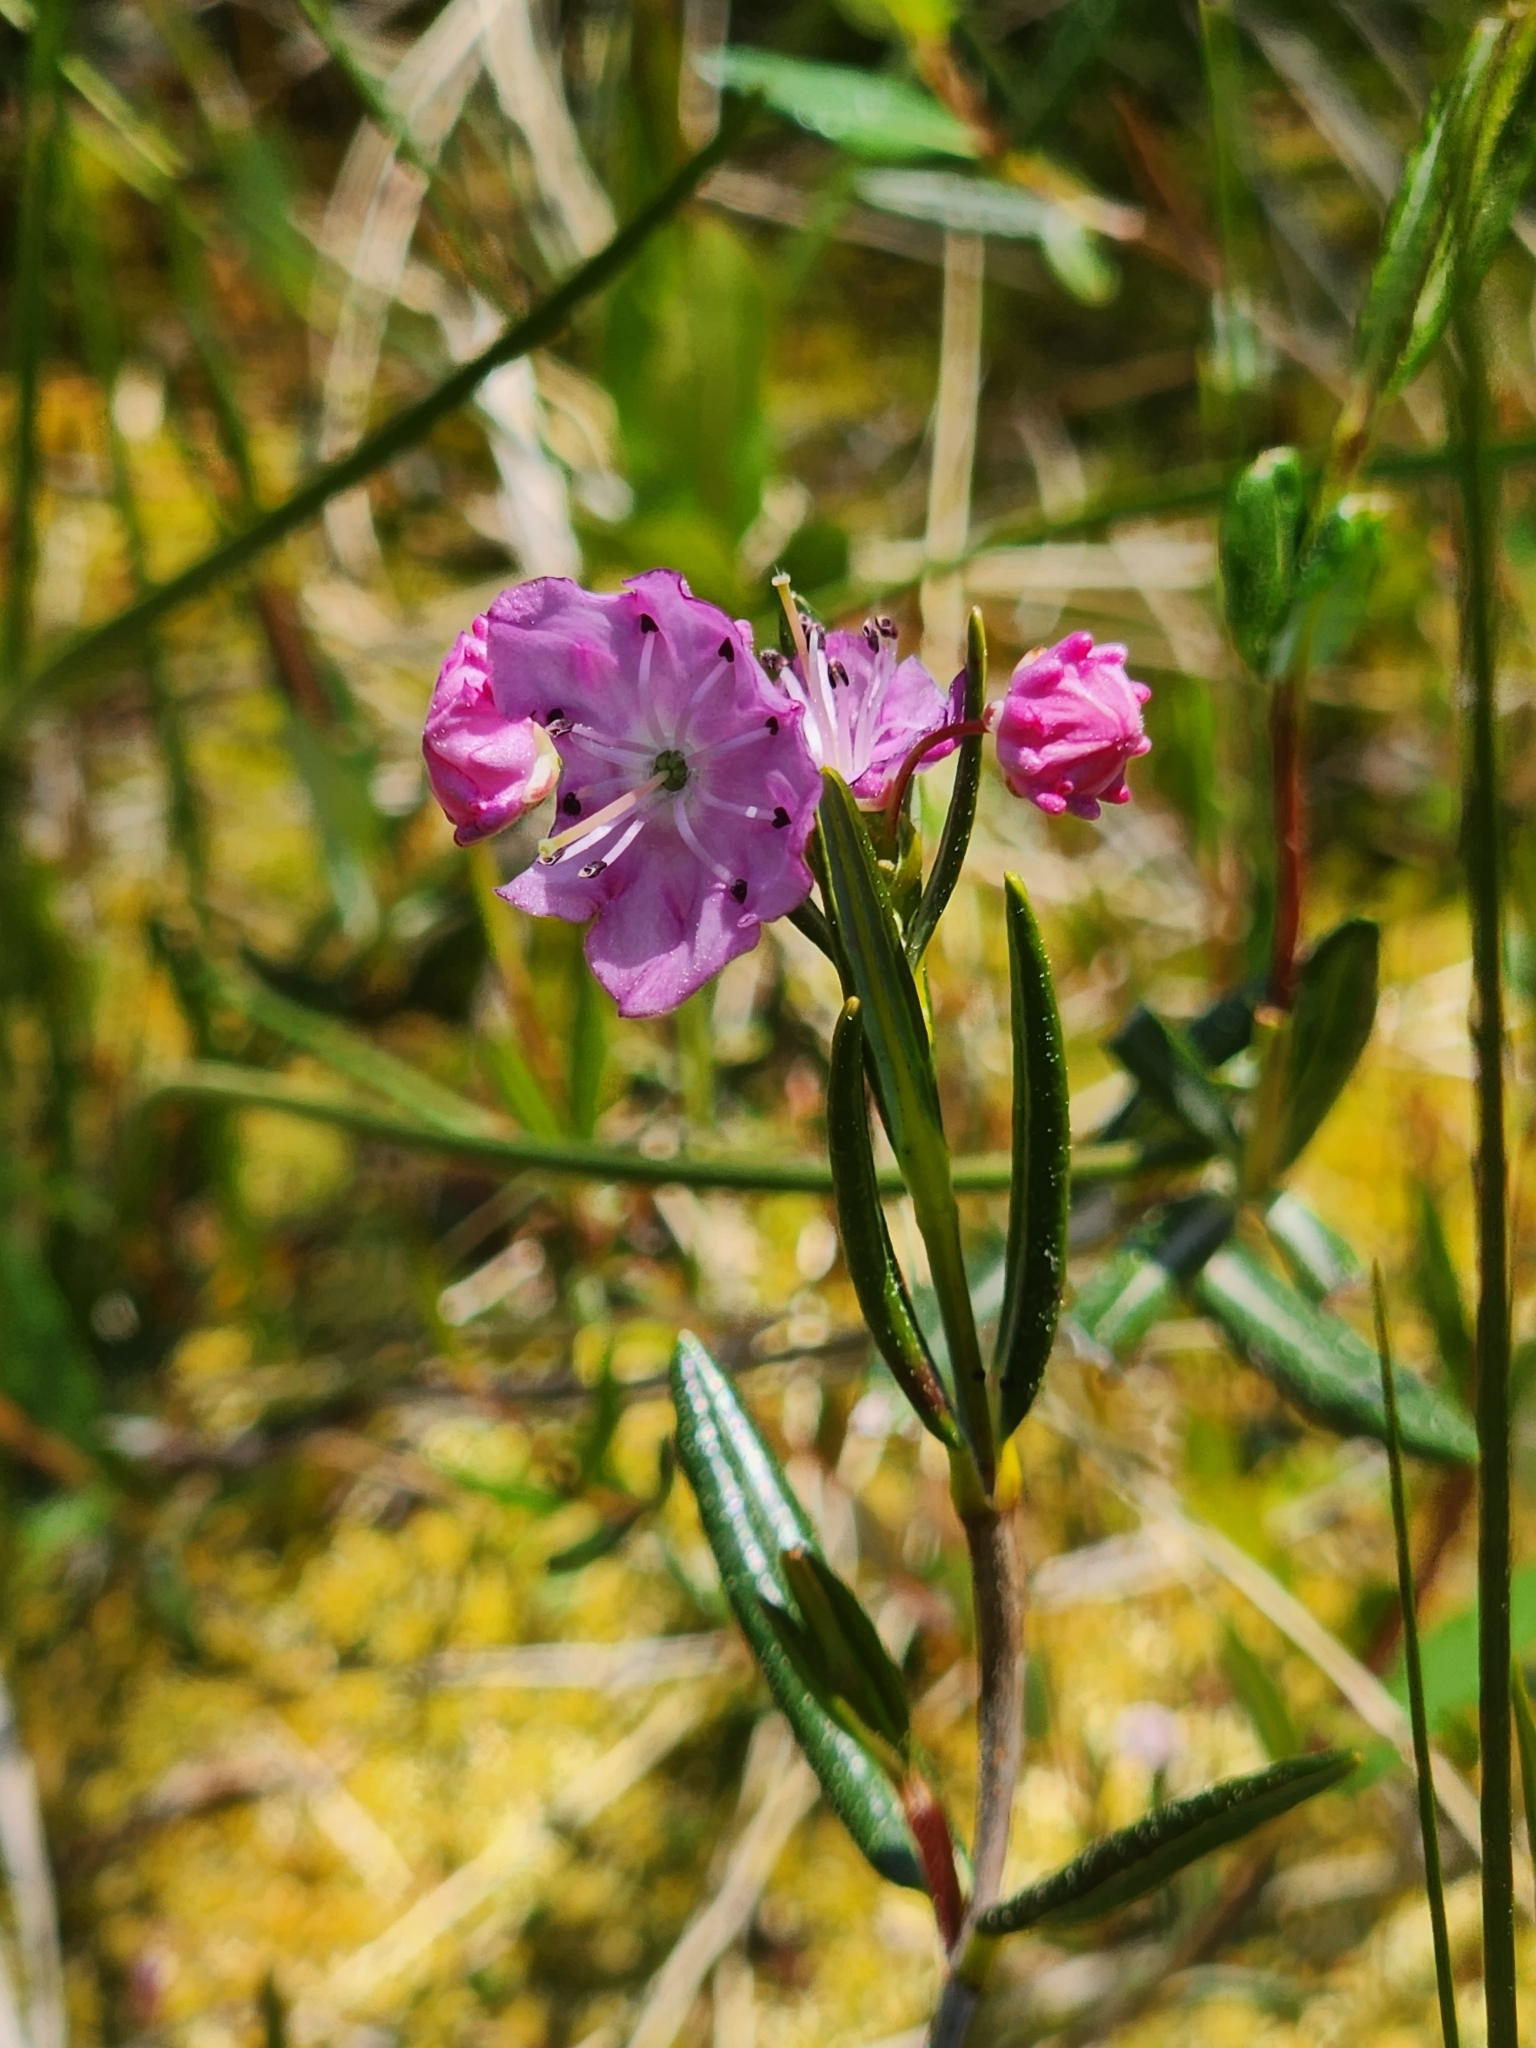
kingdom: Plantae
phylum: Tracheophyta
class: Magnoliopsida
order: Ericales
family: Ericaceae
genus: Kalmia
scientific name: Kalmia polifolia
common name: Bog-laurel
